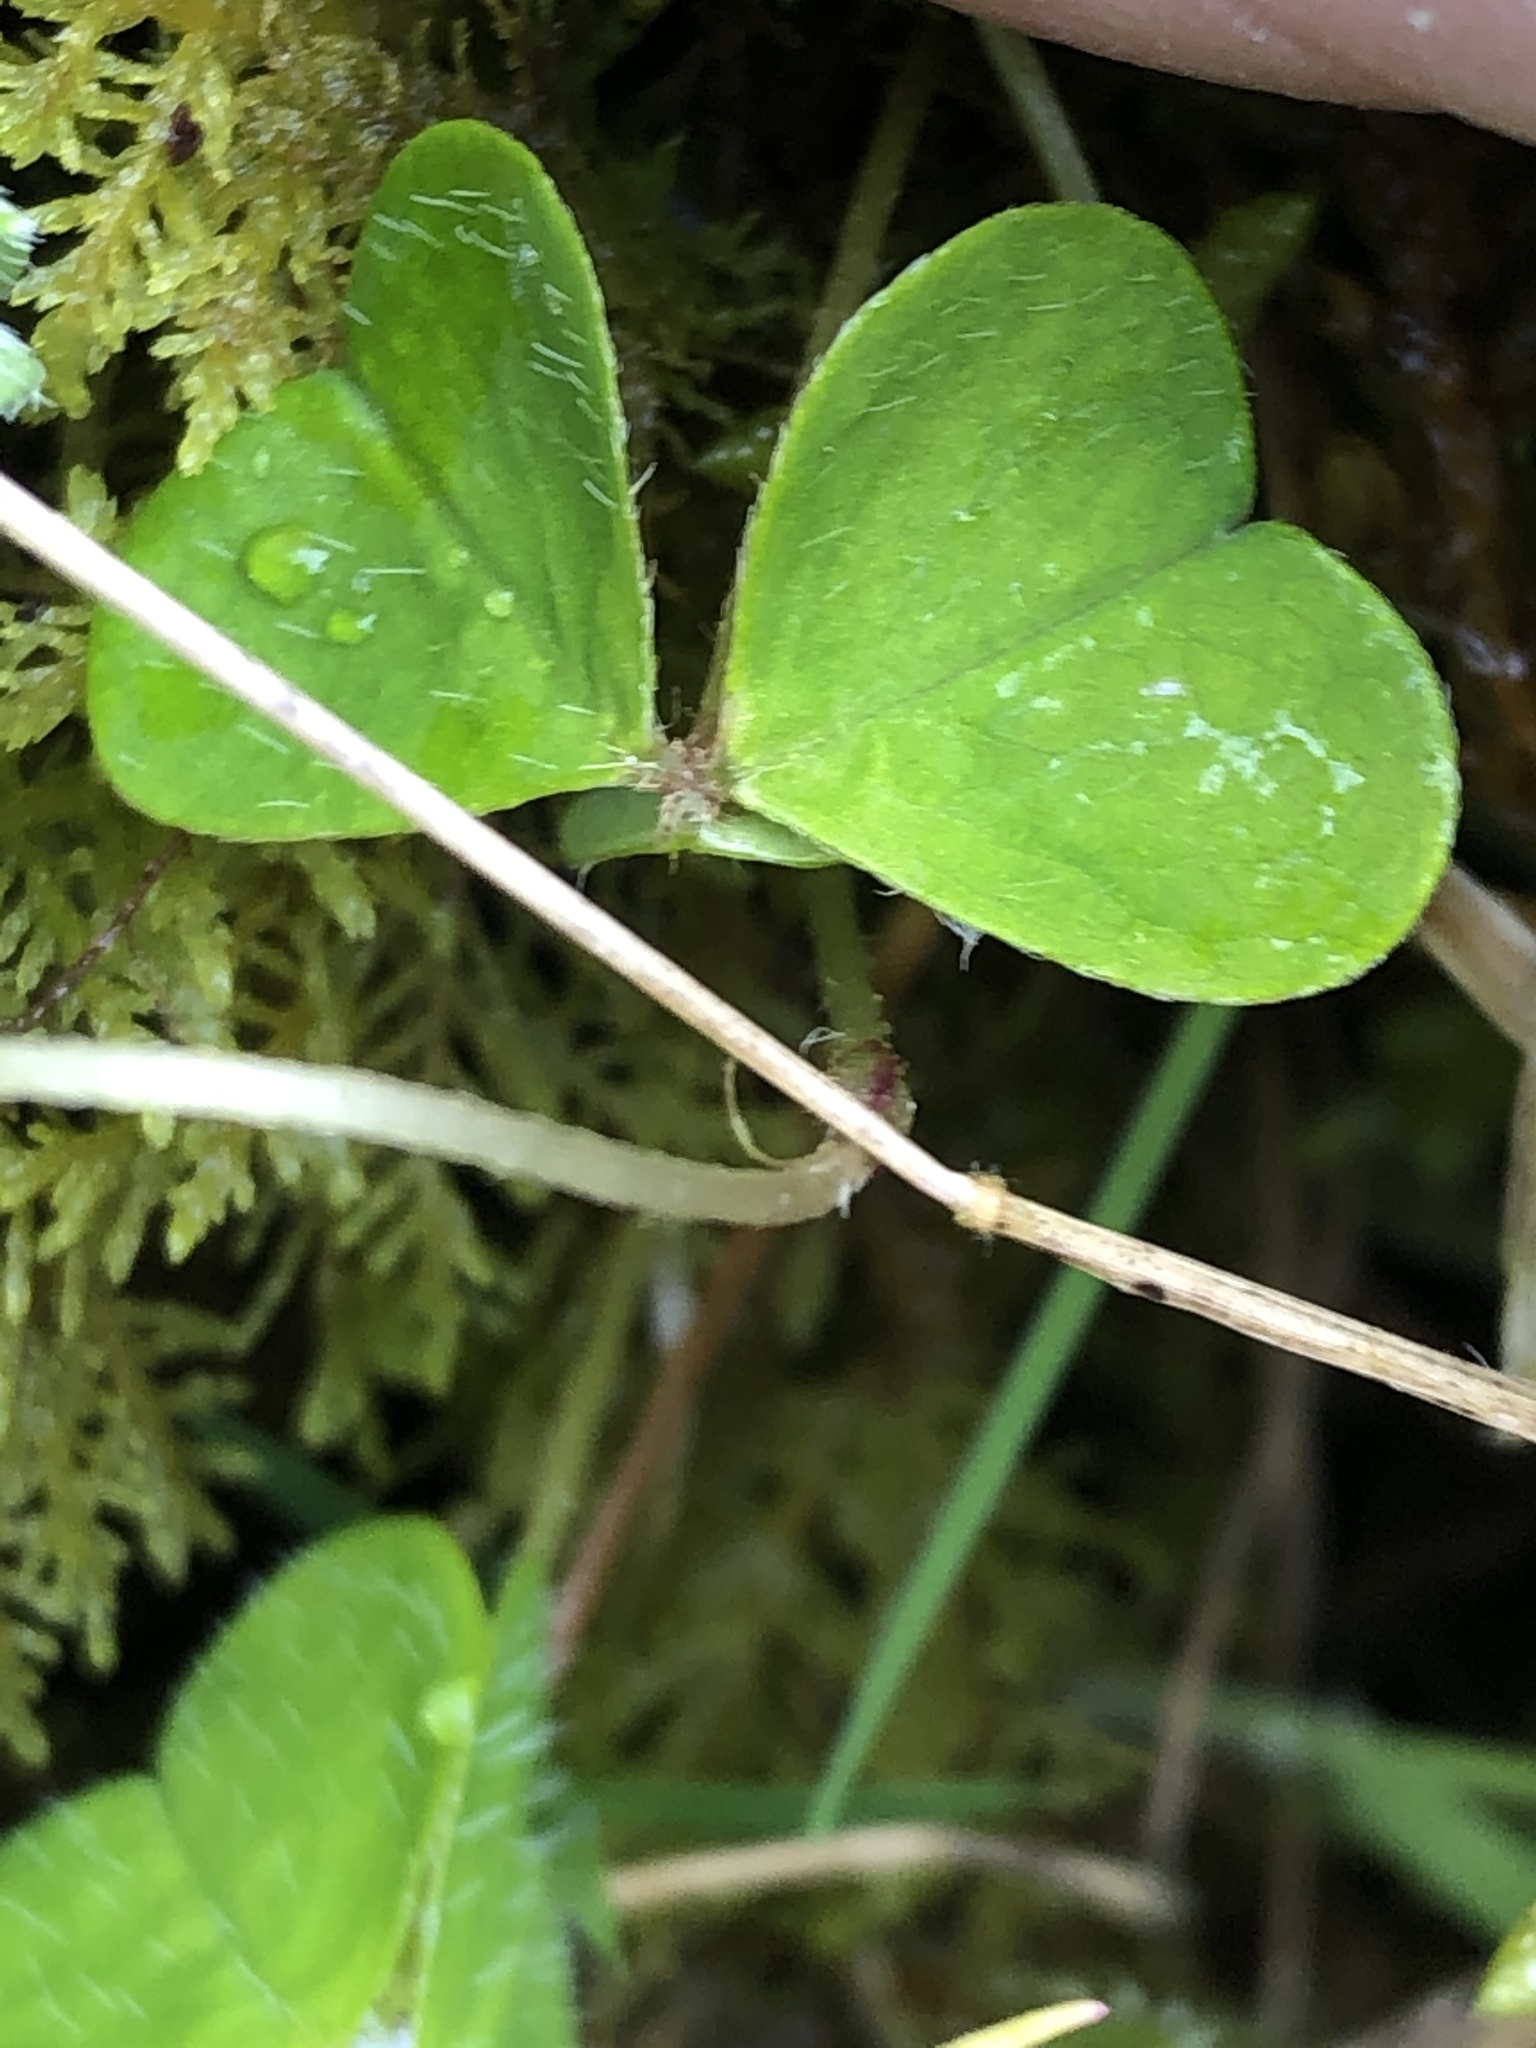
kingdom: Plantae
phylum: Tracheophyta
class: Magnoliopsida
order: Oxalidales
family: Oxalidaceae
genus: Oxalis
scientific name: Oxalis acetosella
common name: Wood-sorrel
